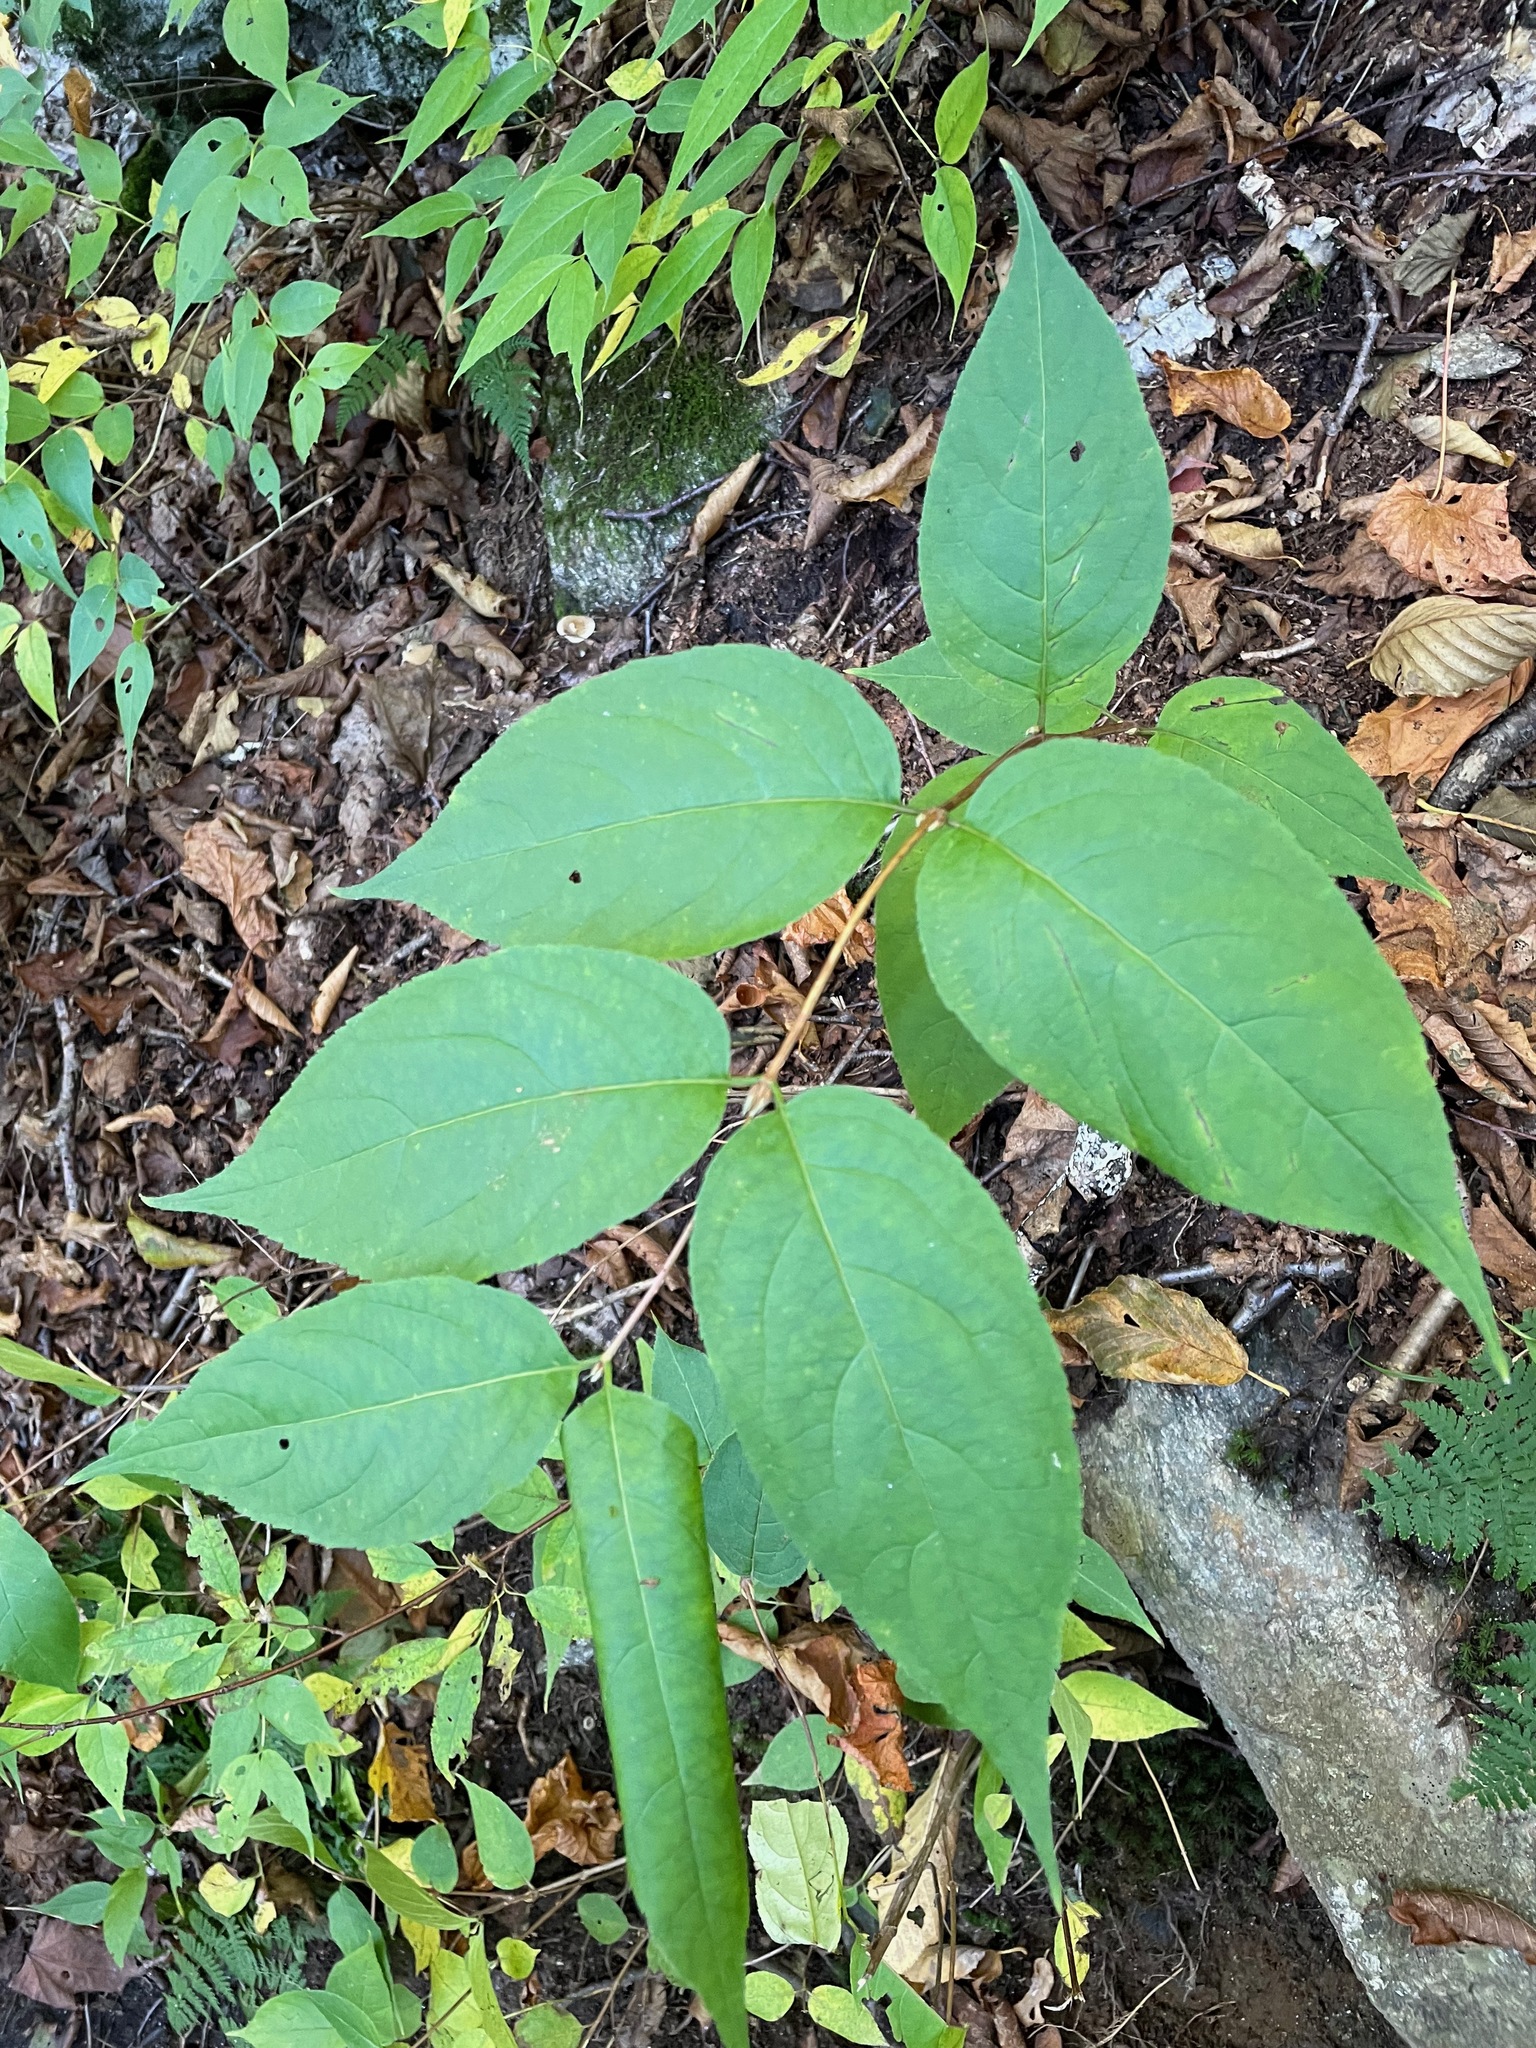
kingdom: Plantae
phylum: Tracheophyta
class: Magnoliopsida
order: Dipsacales
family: Caprifoliaceae
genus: Diervilla
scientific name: Diervilla lonicera
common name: Bush-honeysuckle
